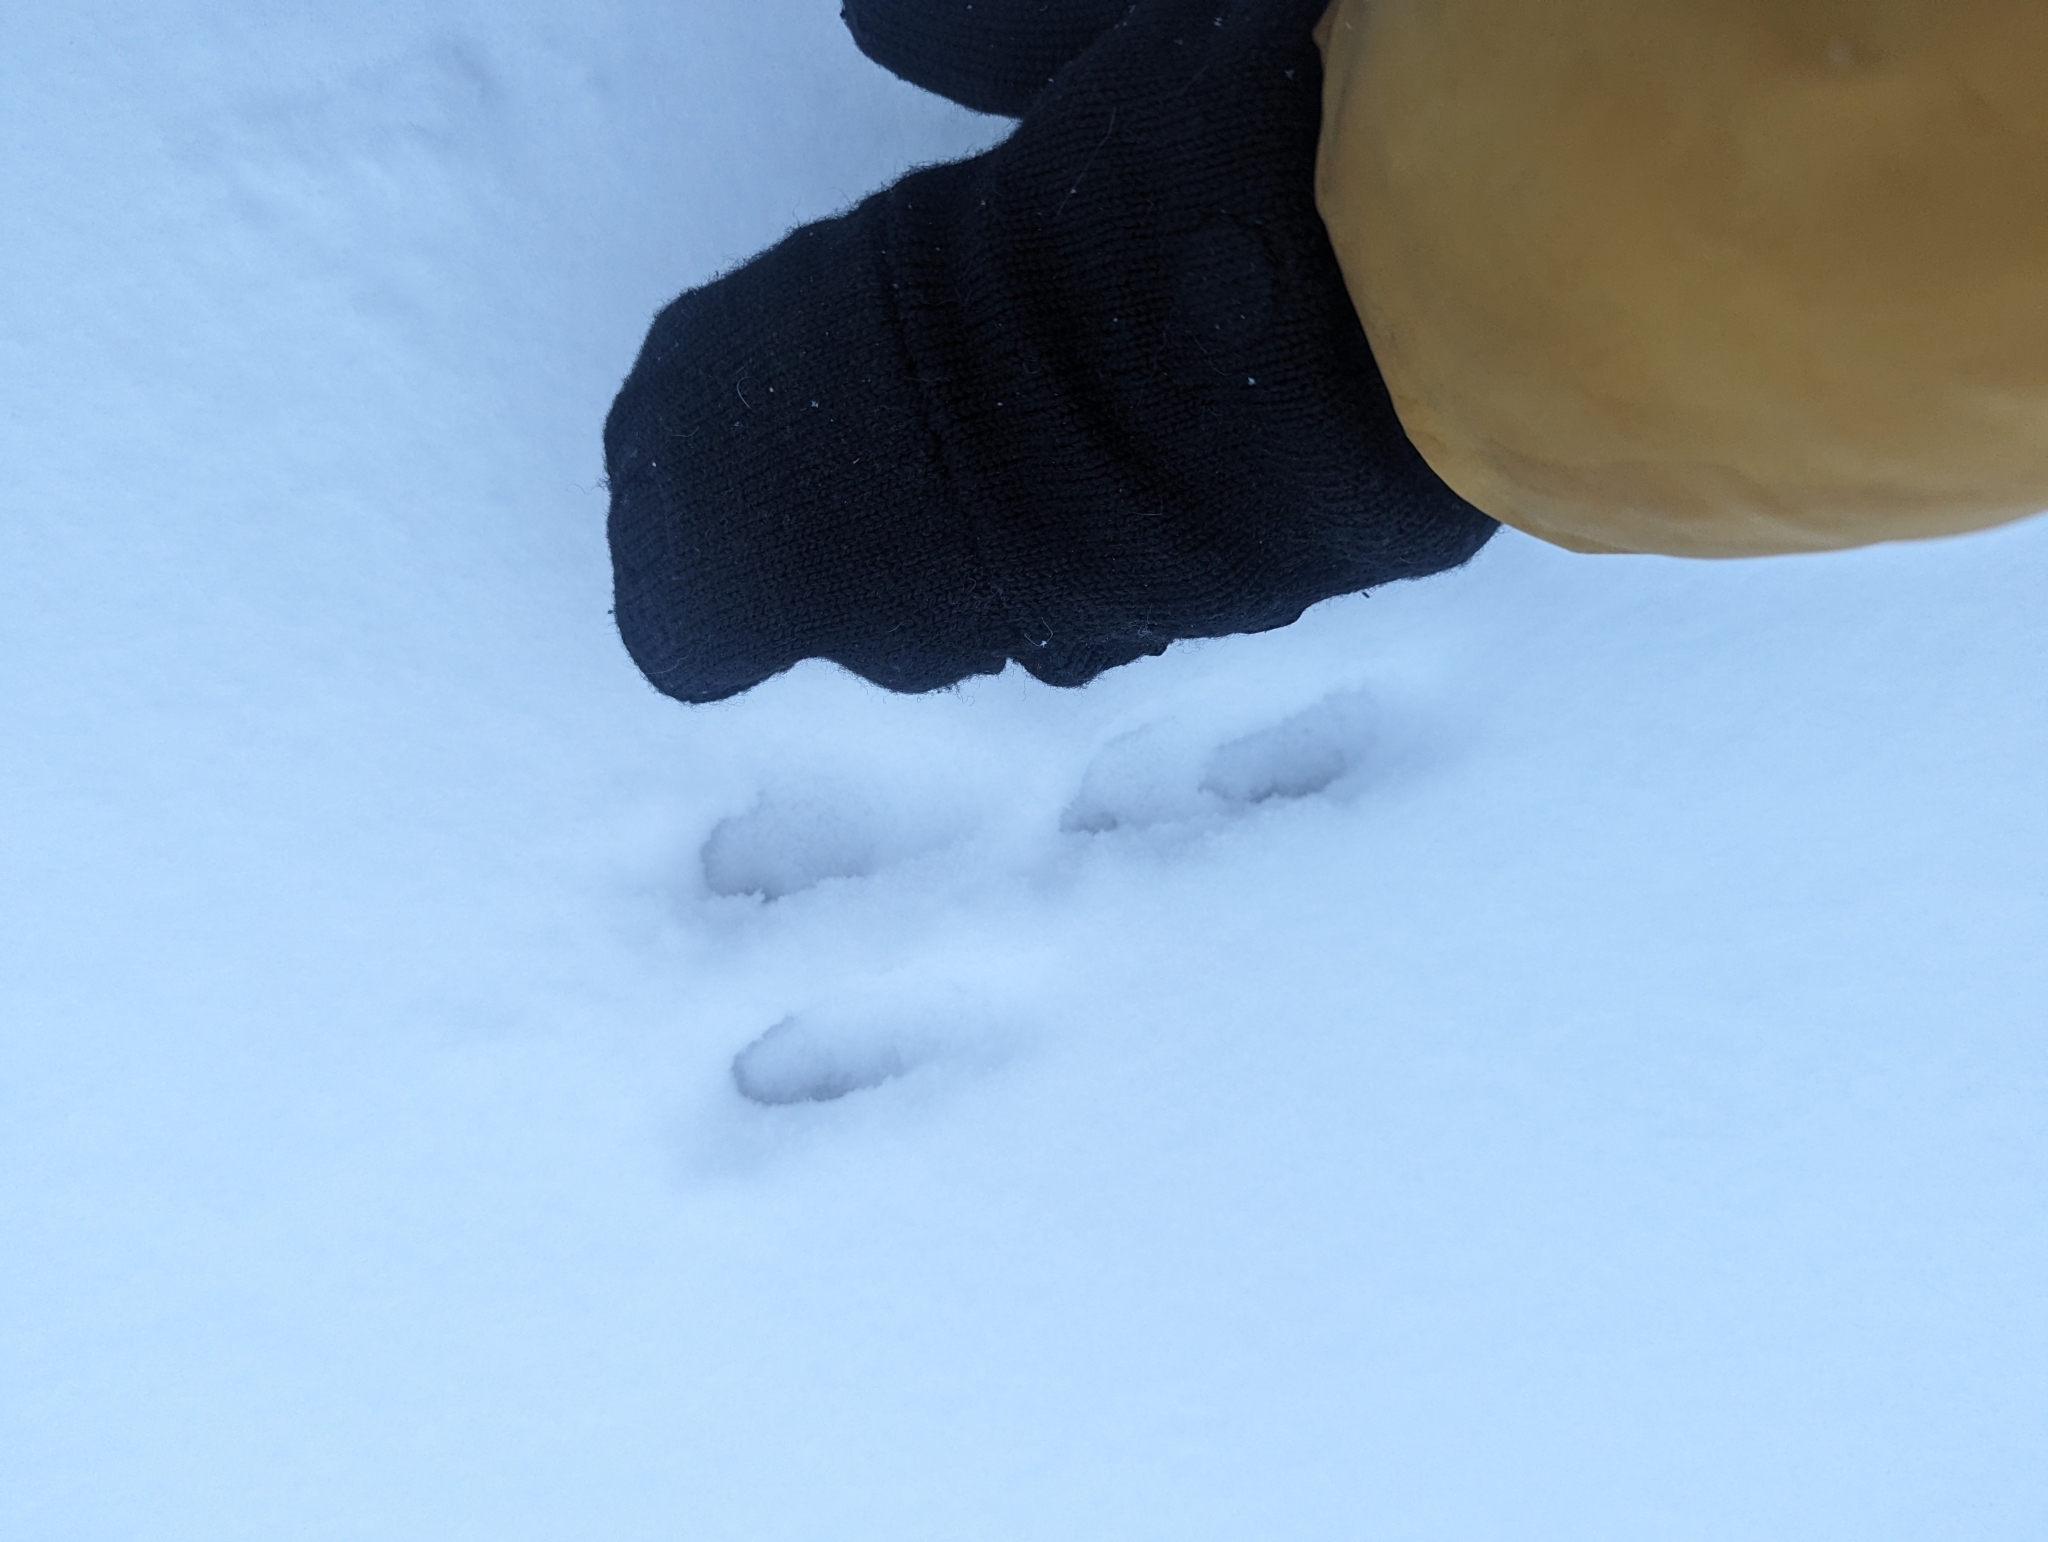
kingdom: Animalia
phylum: Chordata
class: Mammalia
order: Lagomorpha
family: Leporidae
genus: Sylvilagus
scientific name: Sylvilagus floridanus
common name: Eastern cottontail
